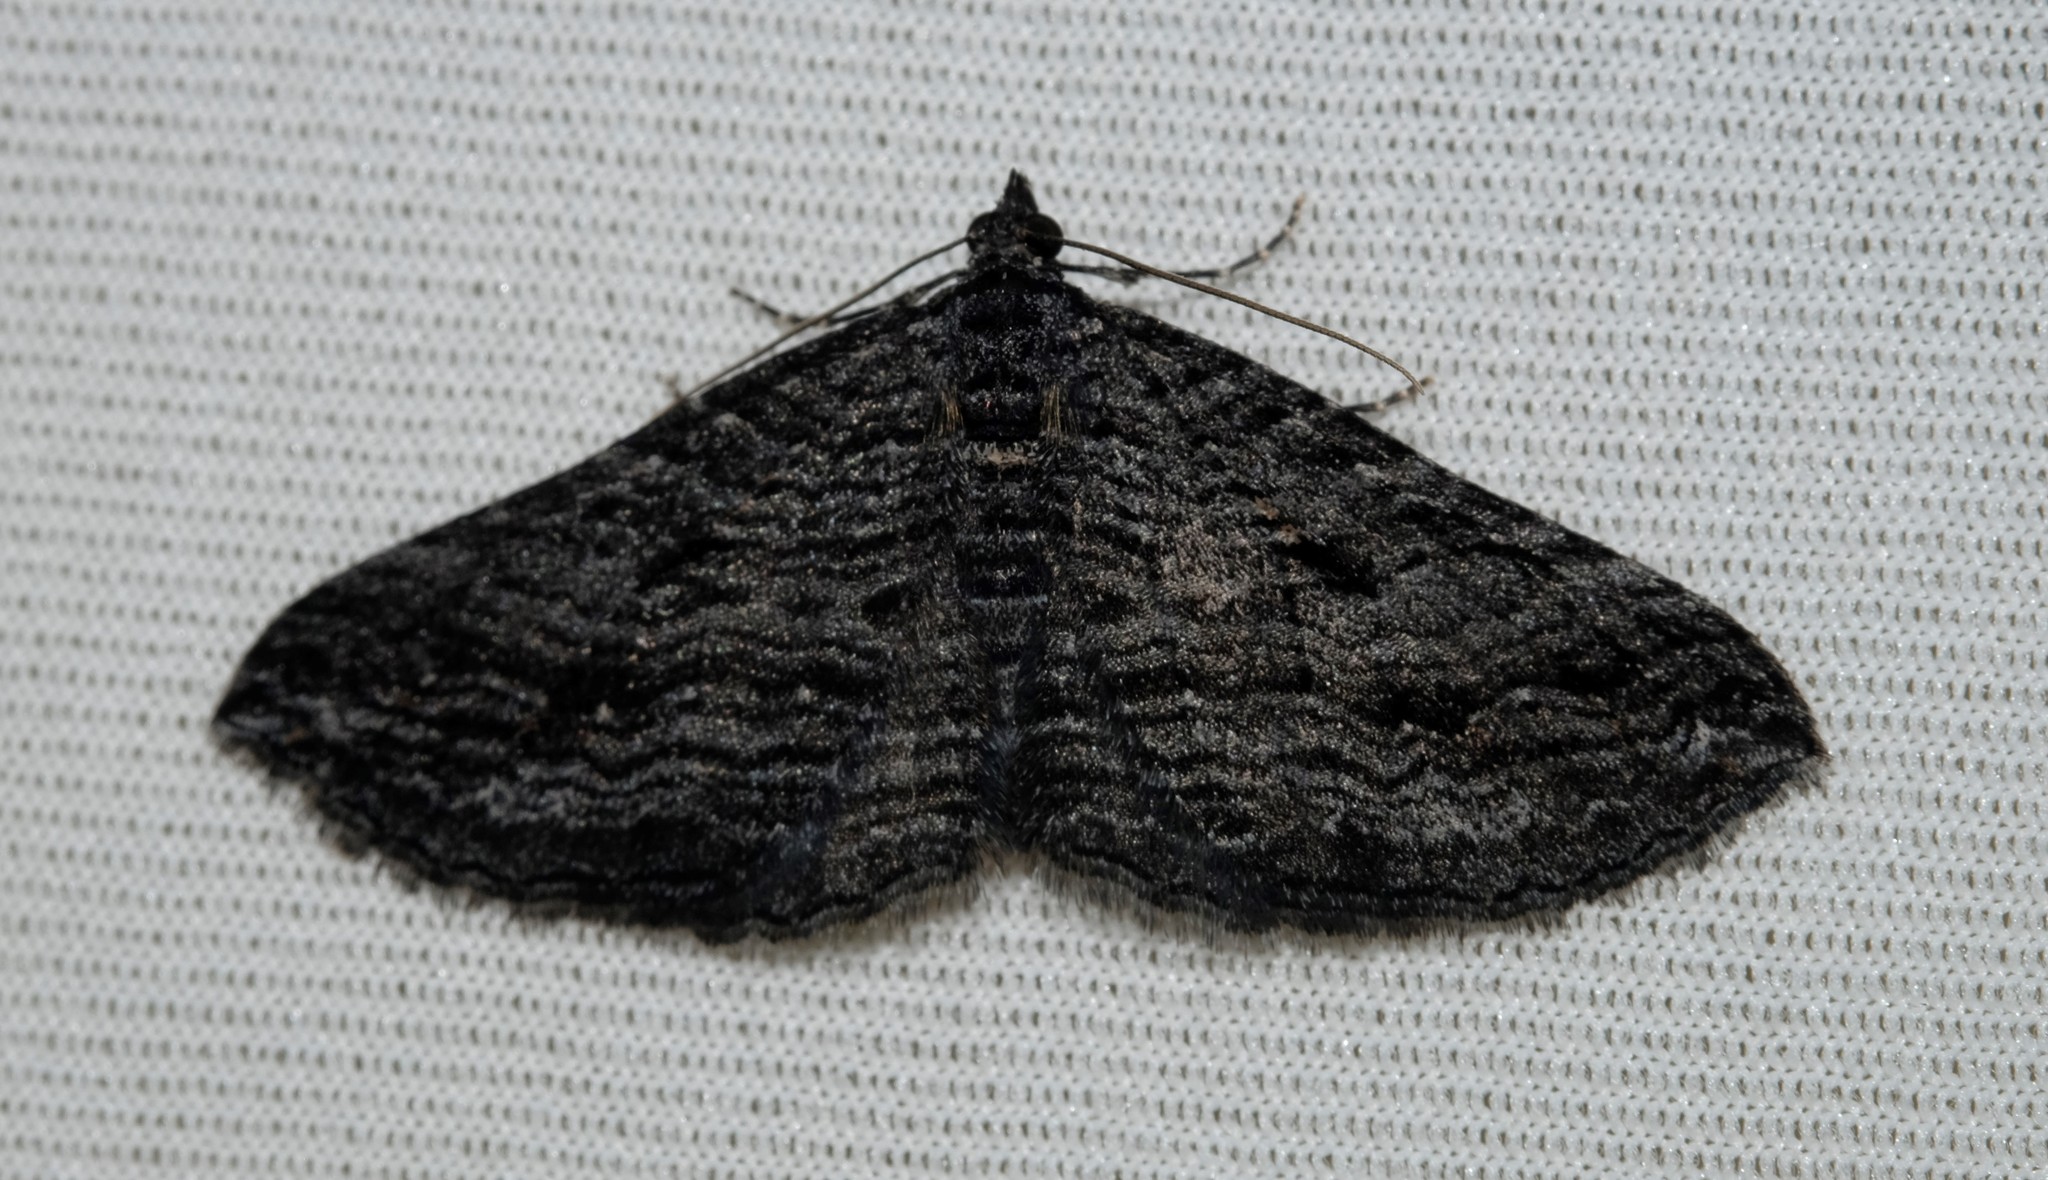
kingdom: Animalia
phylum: Arthropoda
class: Insecta
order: Lepidoptera
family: Geometridae
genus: Chrysolarentia
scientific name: Chrysolarentia severata
